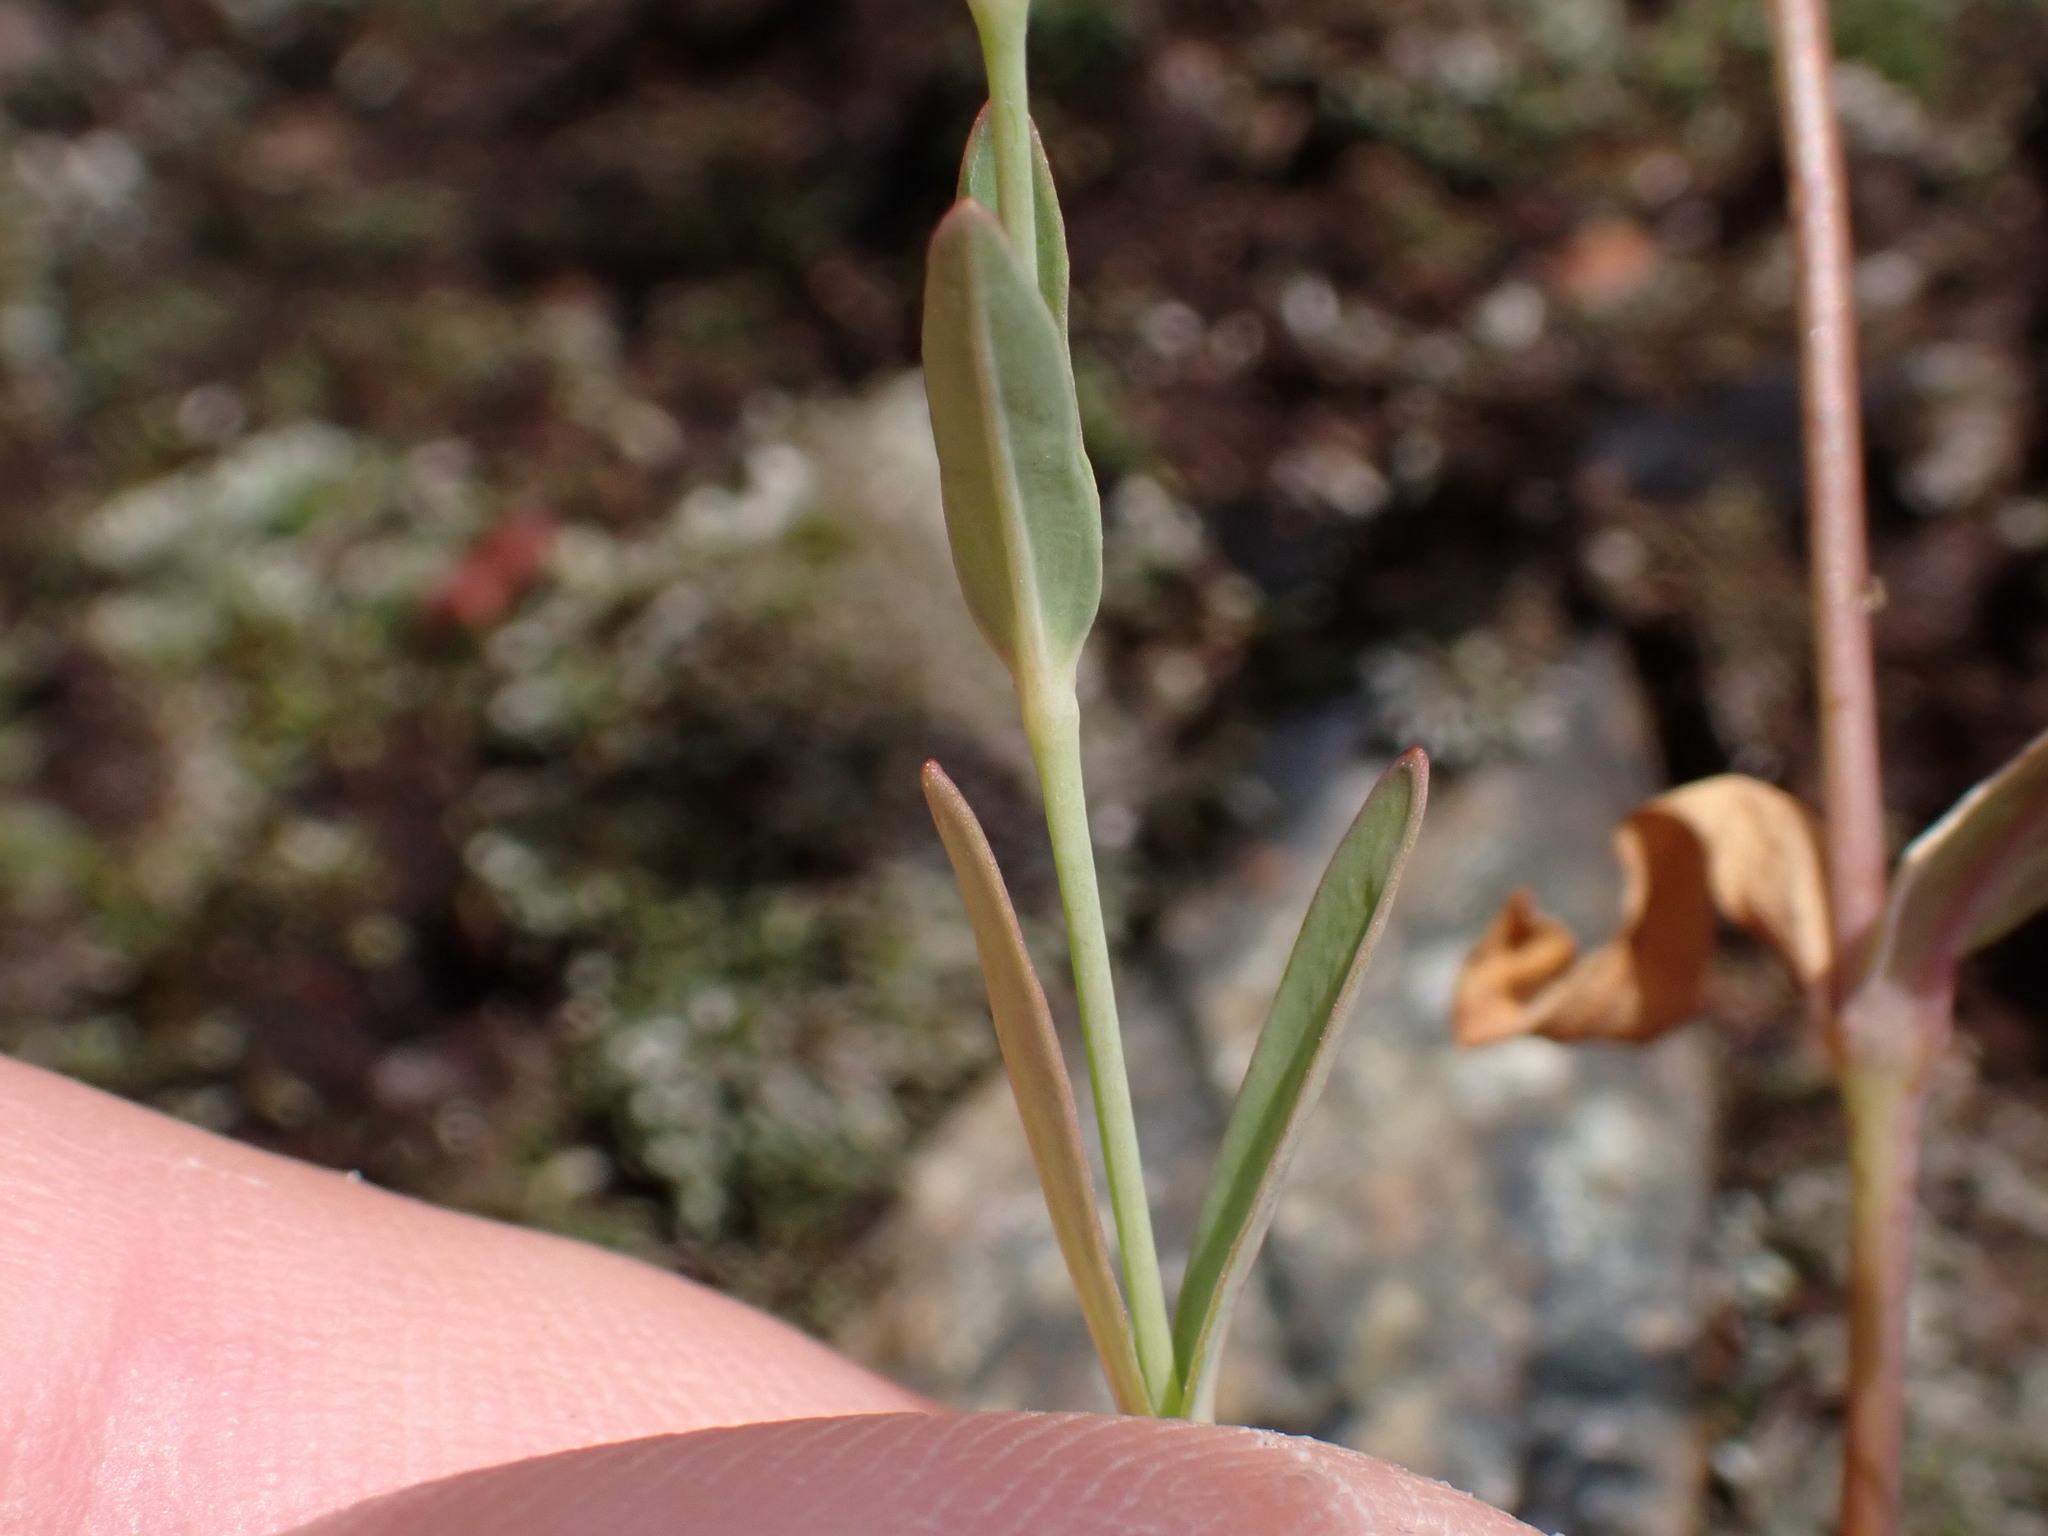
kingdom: Plantae
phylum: Tracheophyta
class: Magnoliopsida
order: Caryophyllales
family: Caryophyllaceae
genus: Atocion
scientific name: Atocion rupestre
